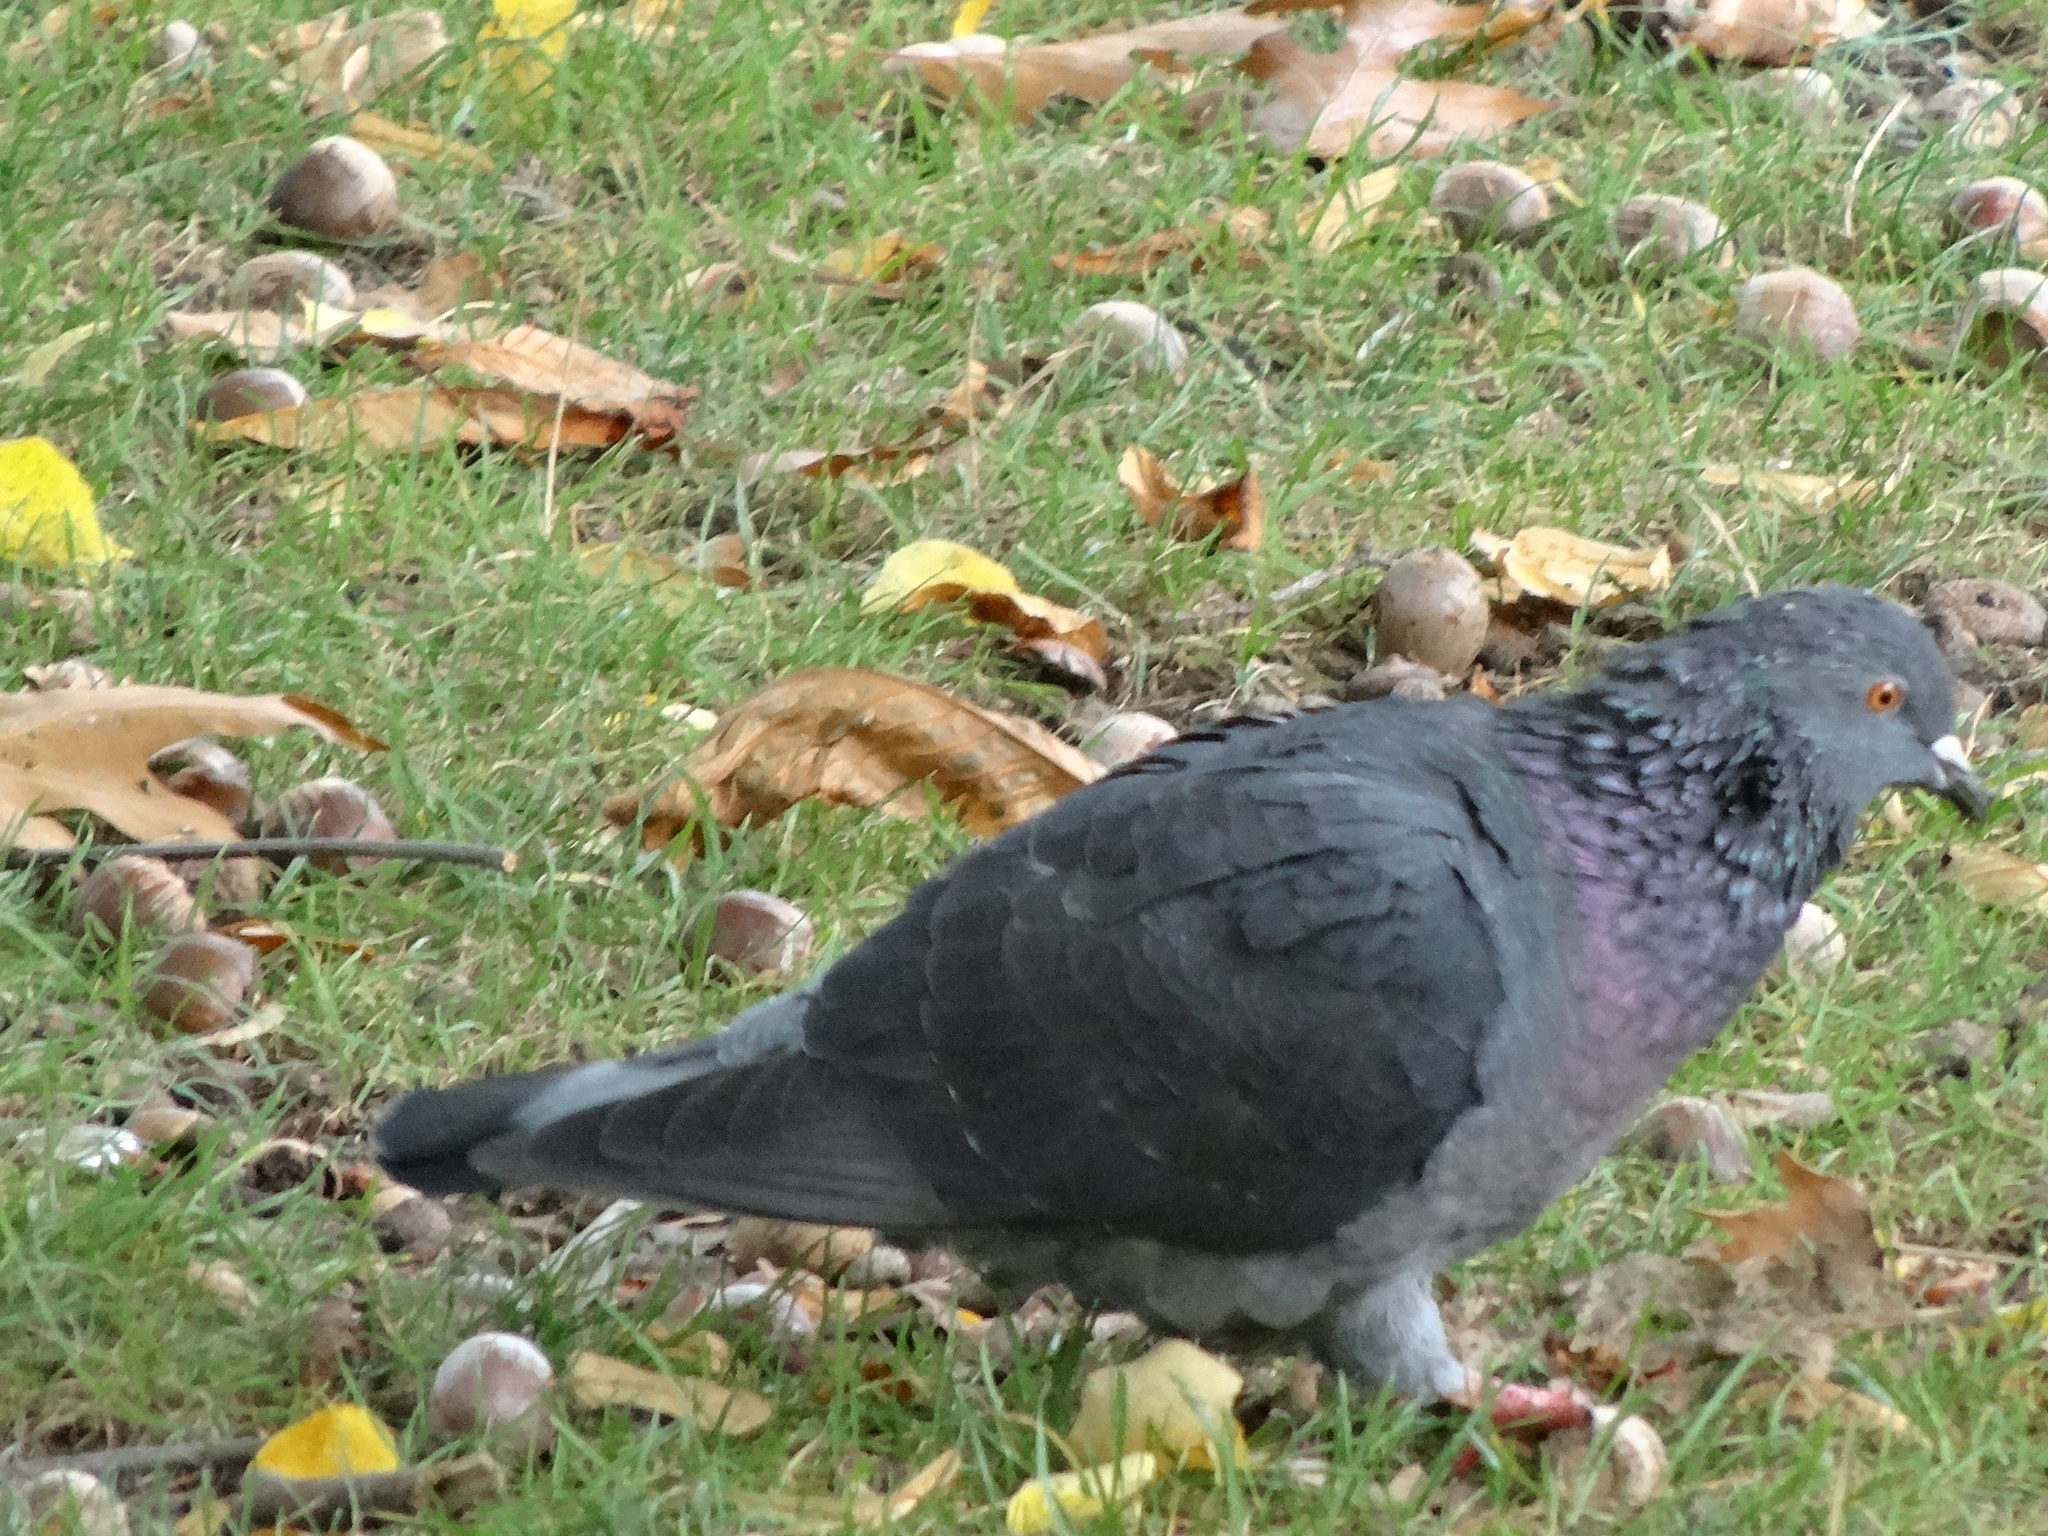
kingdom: Animalia
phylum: Chordata
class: Aves
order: Columbiformes
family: Columbidae
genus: Columba
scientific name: Columba livia
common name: Rock pigeon
